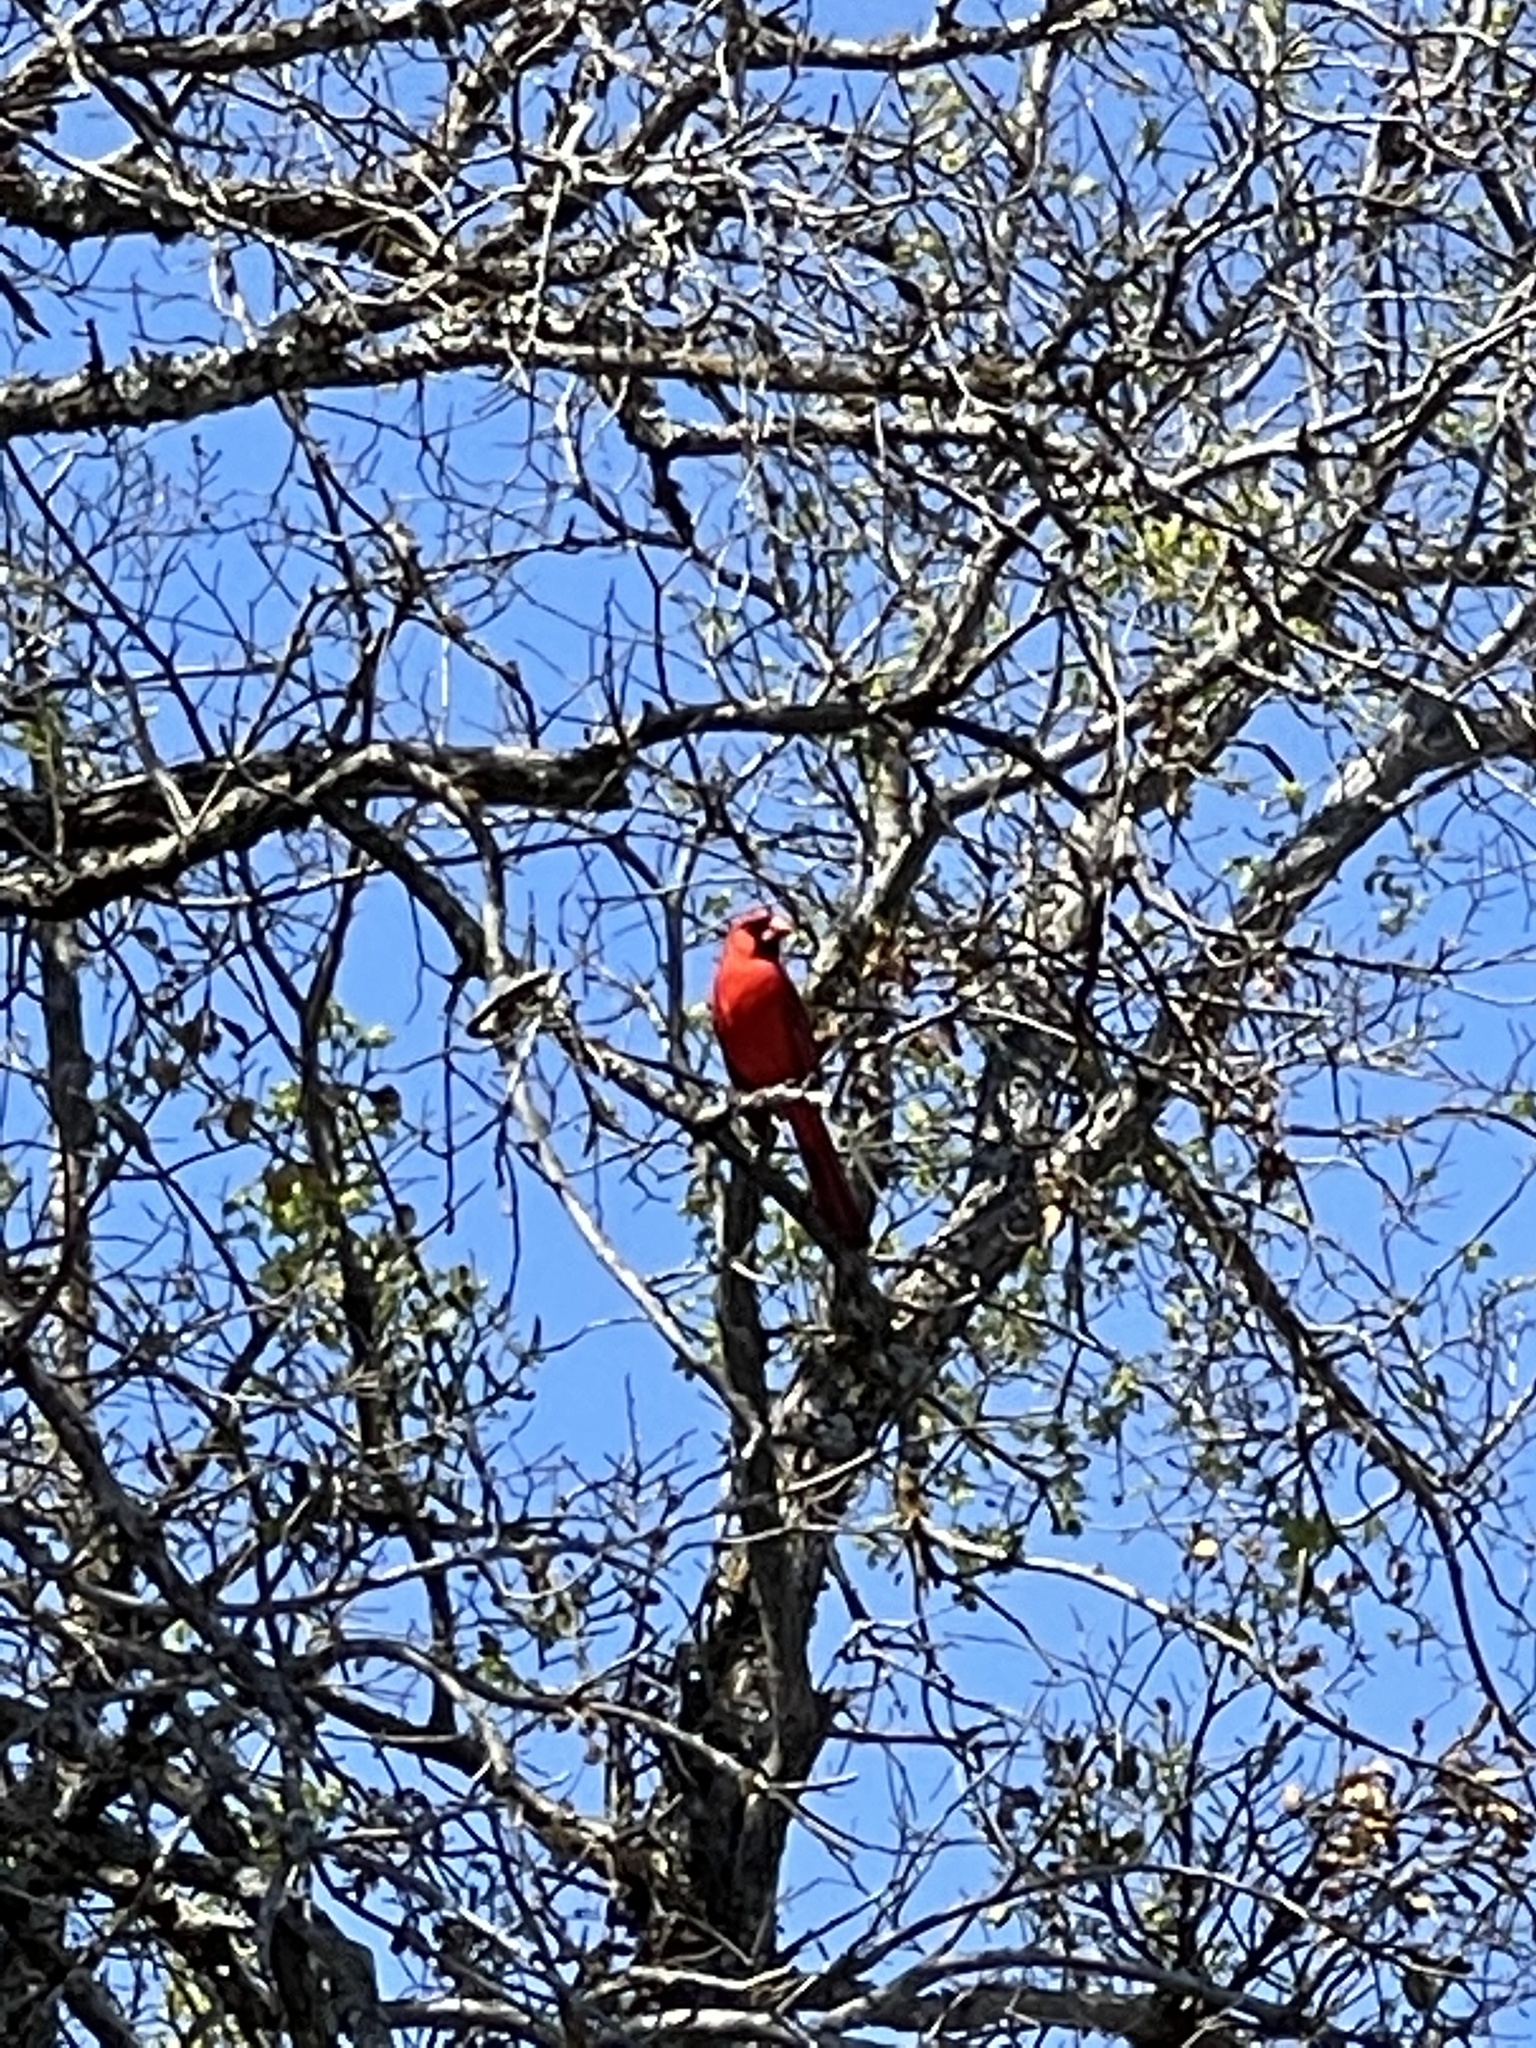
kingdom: Animalia
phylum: Chordata
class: Aves
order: Passeriformes
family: Cardinalidae
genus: Cardinalis
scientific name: Cardinalis cardinalis
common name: Northern cardinal
